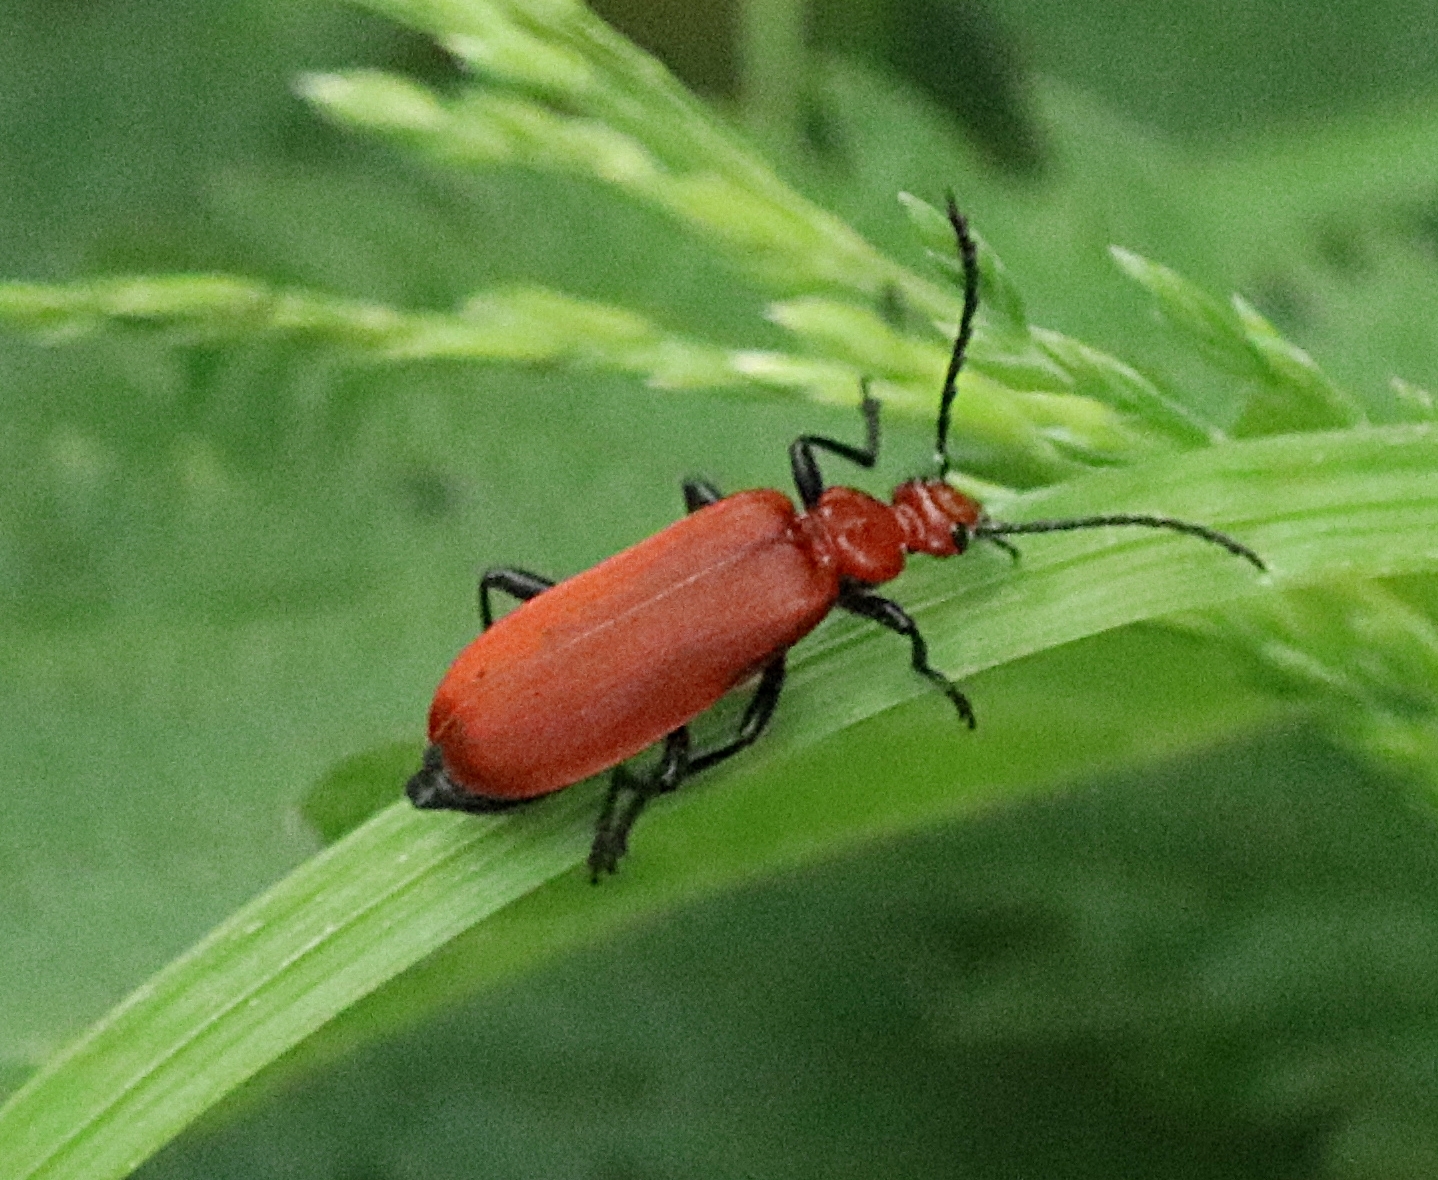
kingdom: Animalia
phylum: Arthropoda
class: Insecta
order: Coleoptera
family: Pyrochroidae
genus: Pyrochroa
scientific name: Pyrochroa serraticornis
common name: Red-headed cardinal beetle
